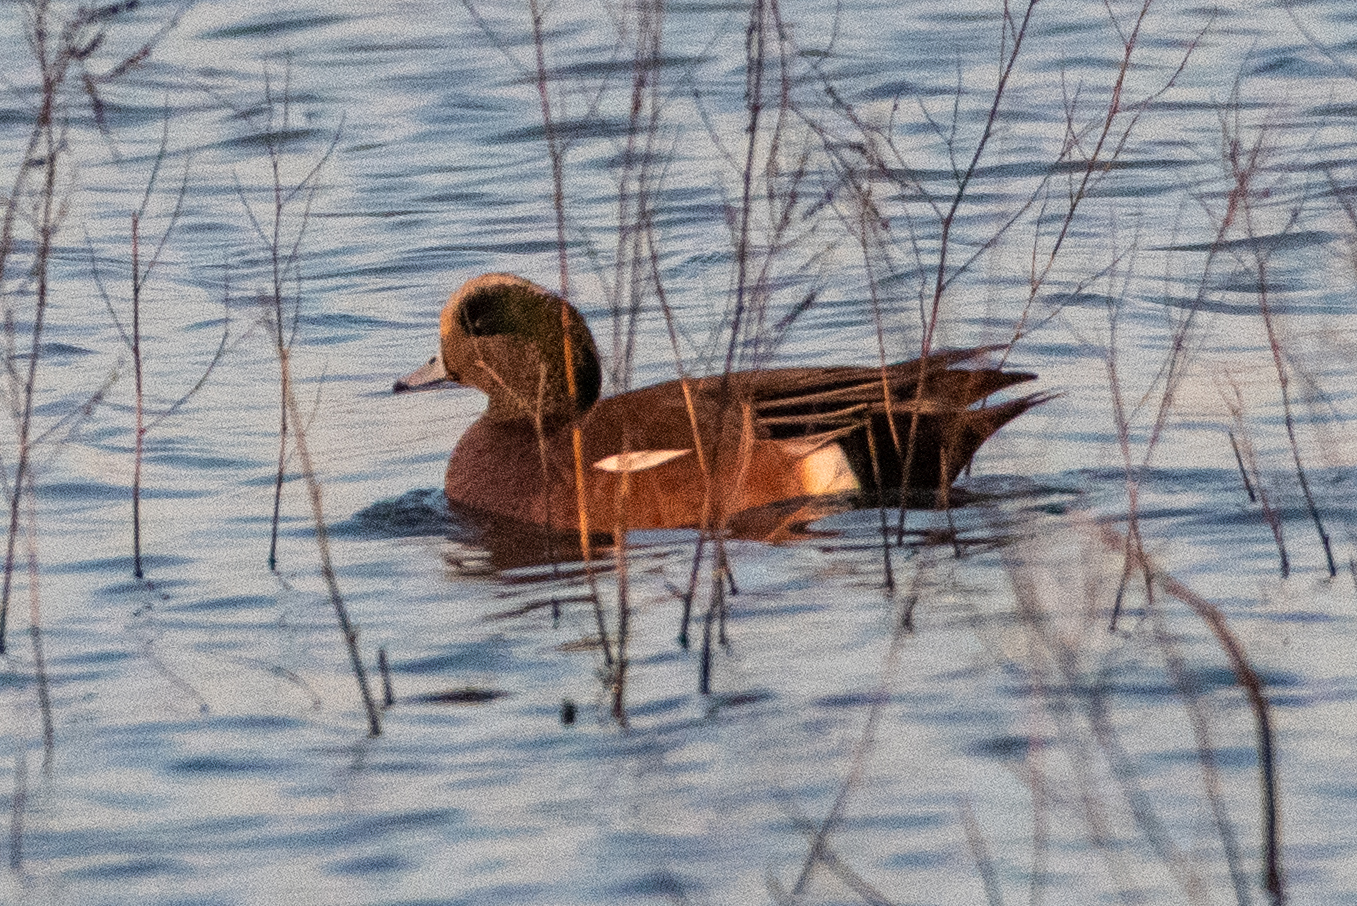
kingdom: Animalia
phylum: Chordata
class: Aves
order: Anseriformes
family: Anatidae
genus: Mareca
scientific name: Mareca americana
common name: American wigeon
